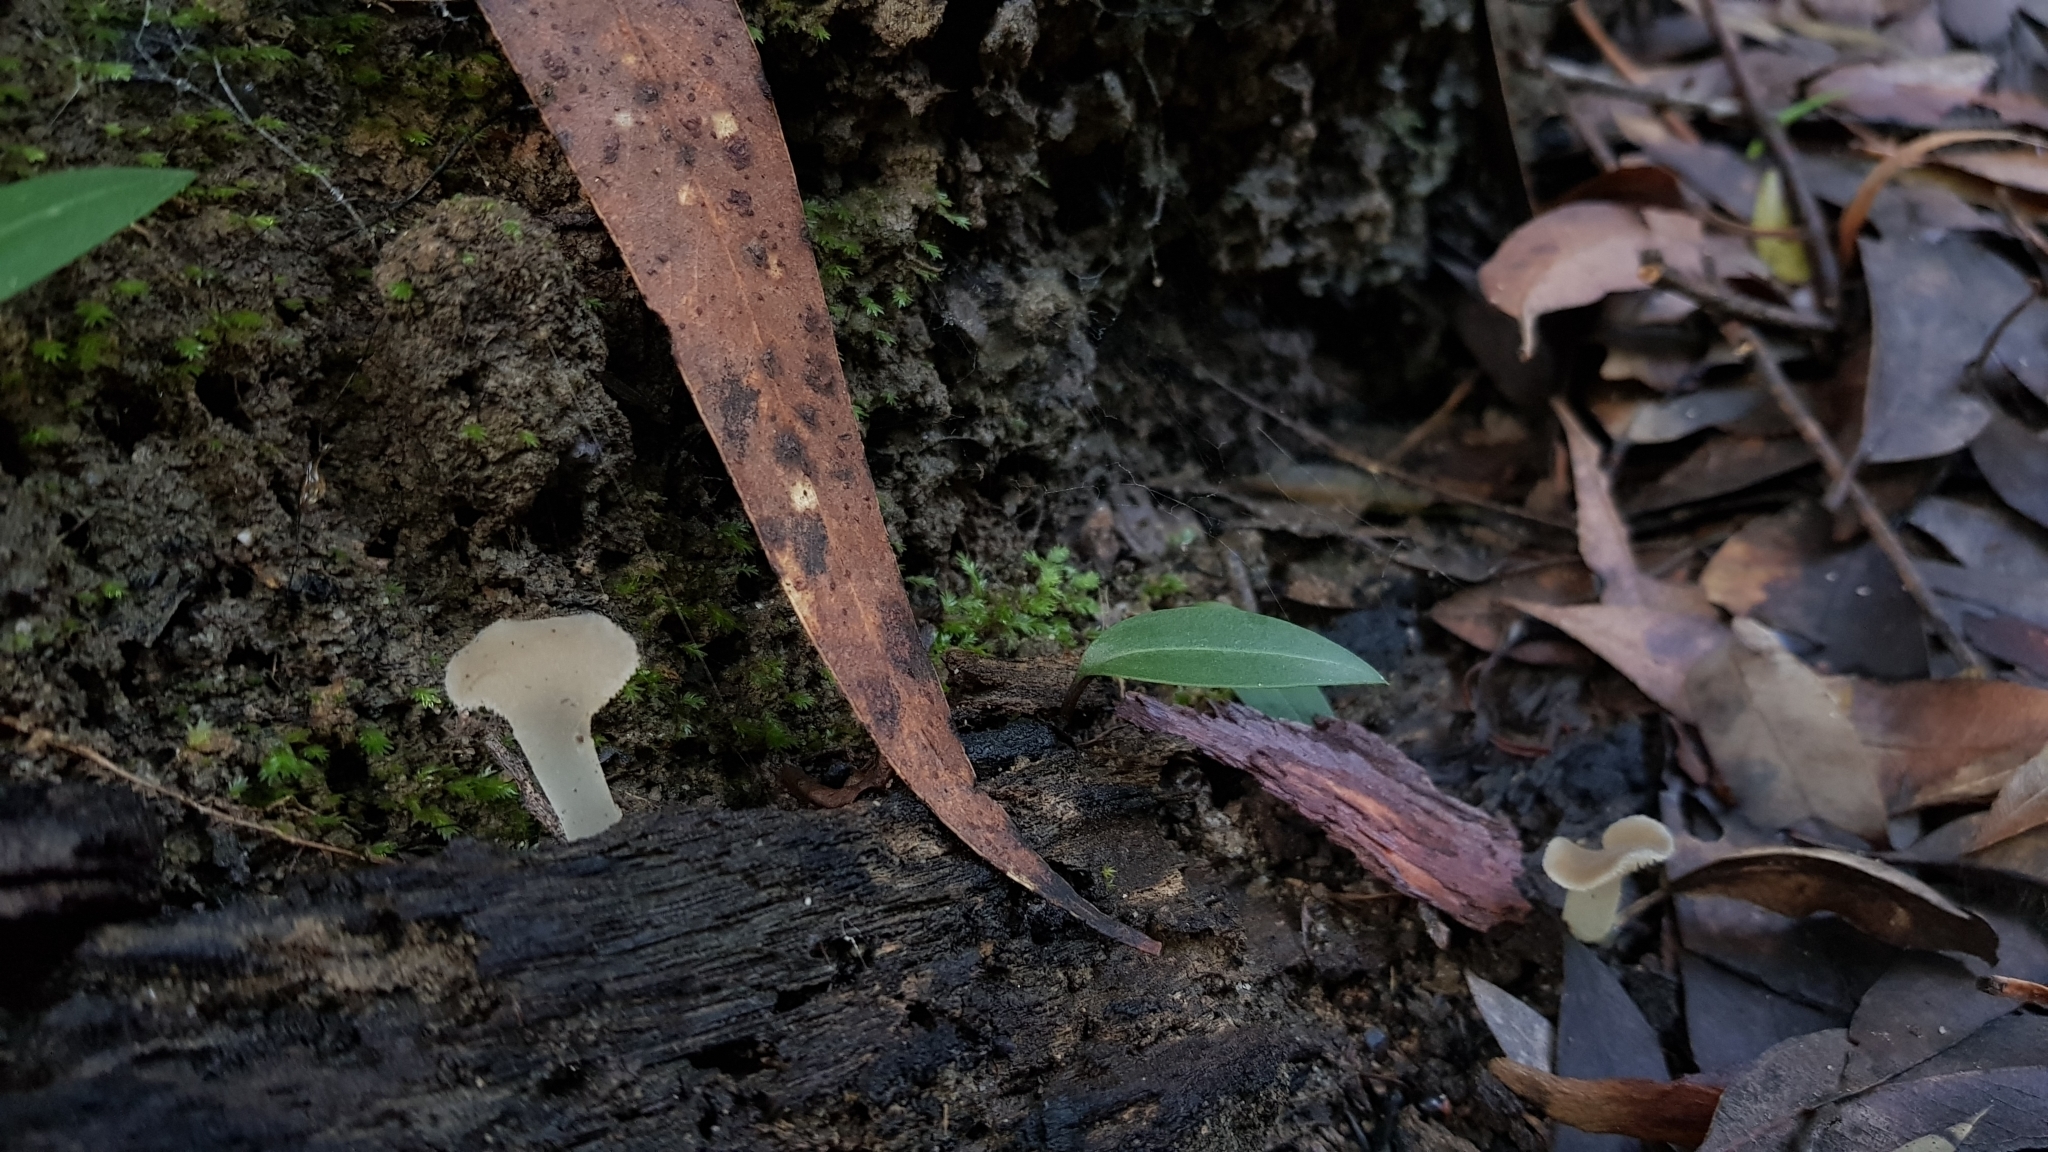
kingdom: Fungi
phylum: Basidiomycota
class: Agaricomycetes
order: Auriculariales
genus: Pseudohydnum
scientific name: Pseudohydnum gelatinosum
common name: Jelly tongue
